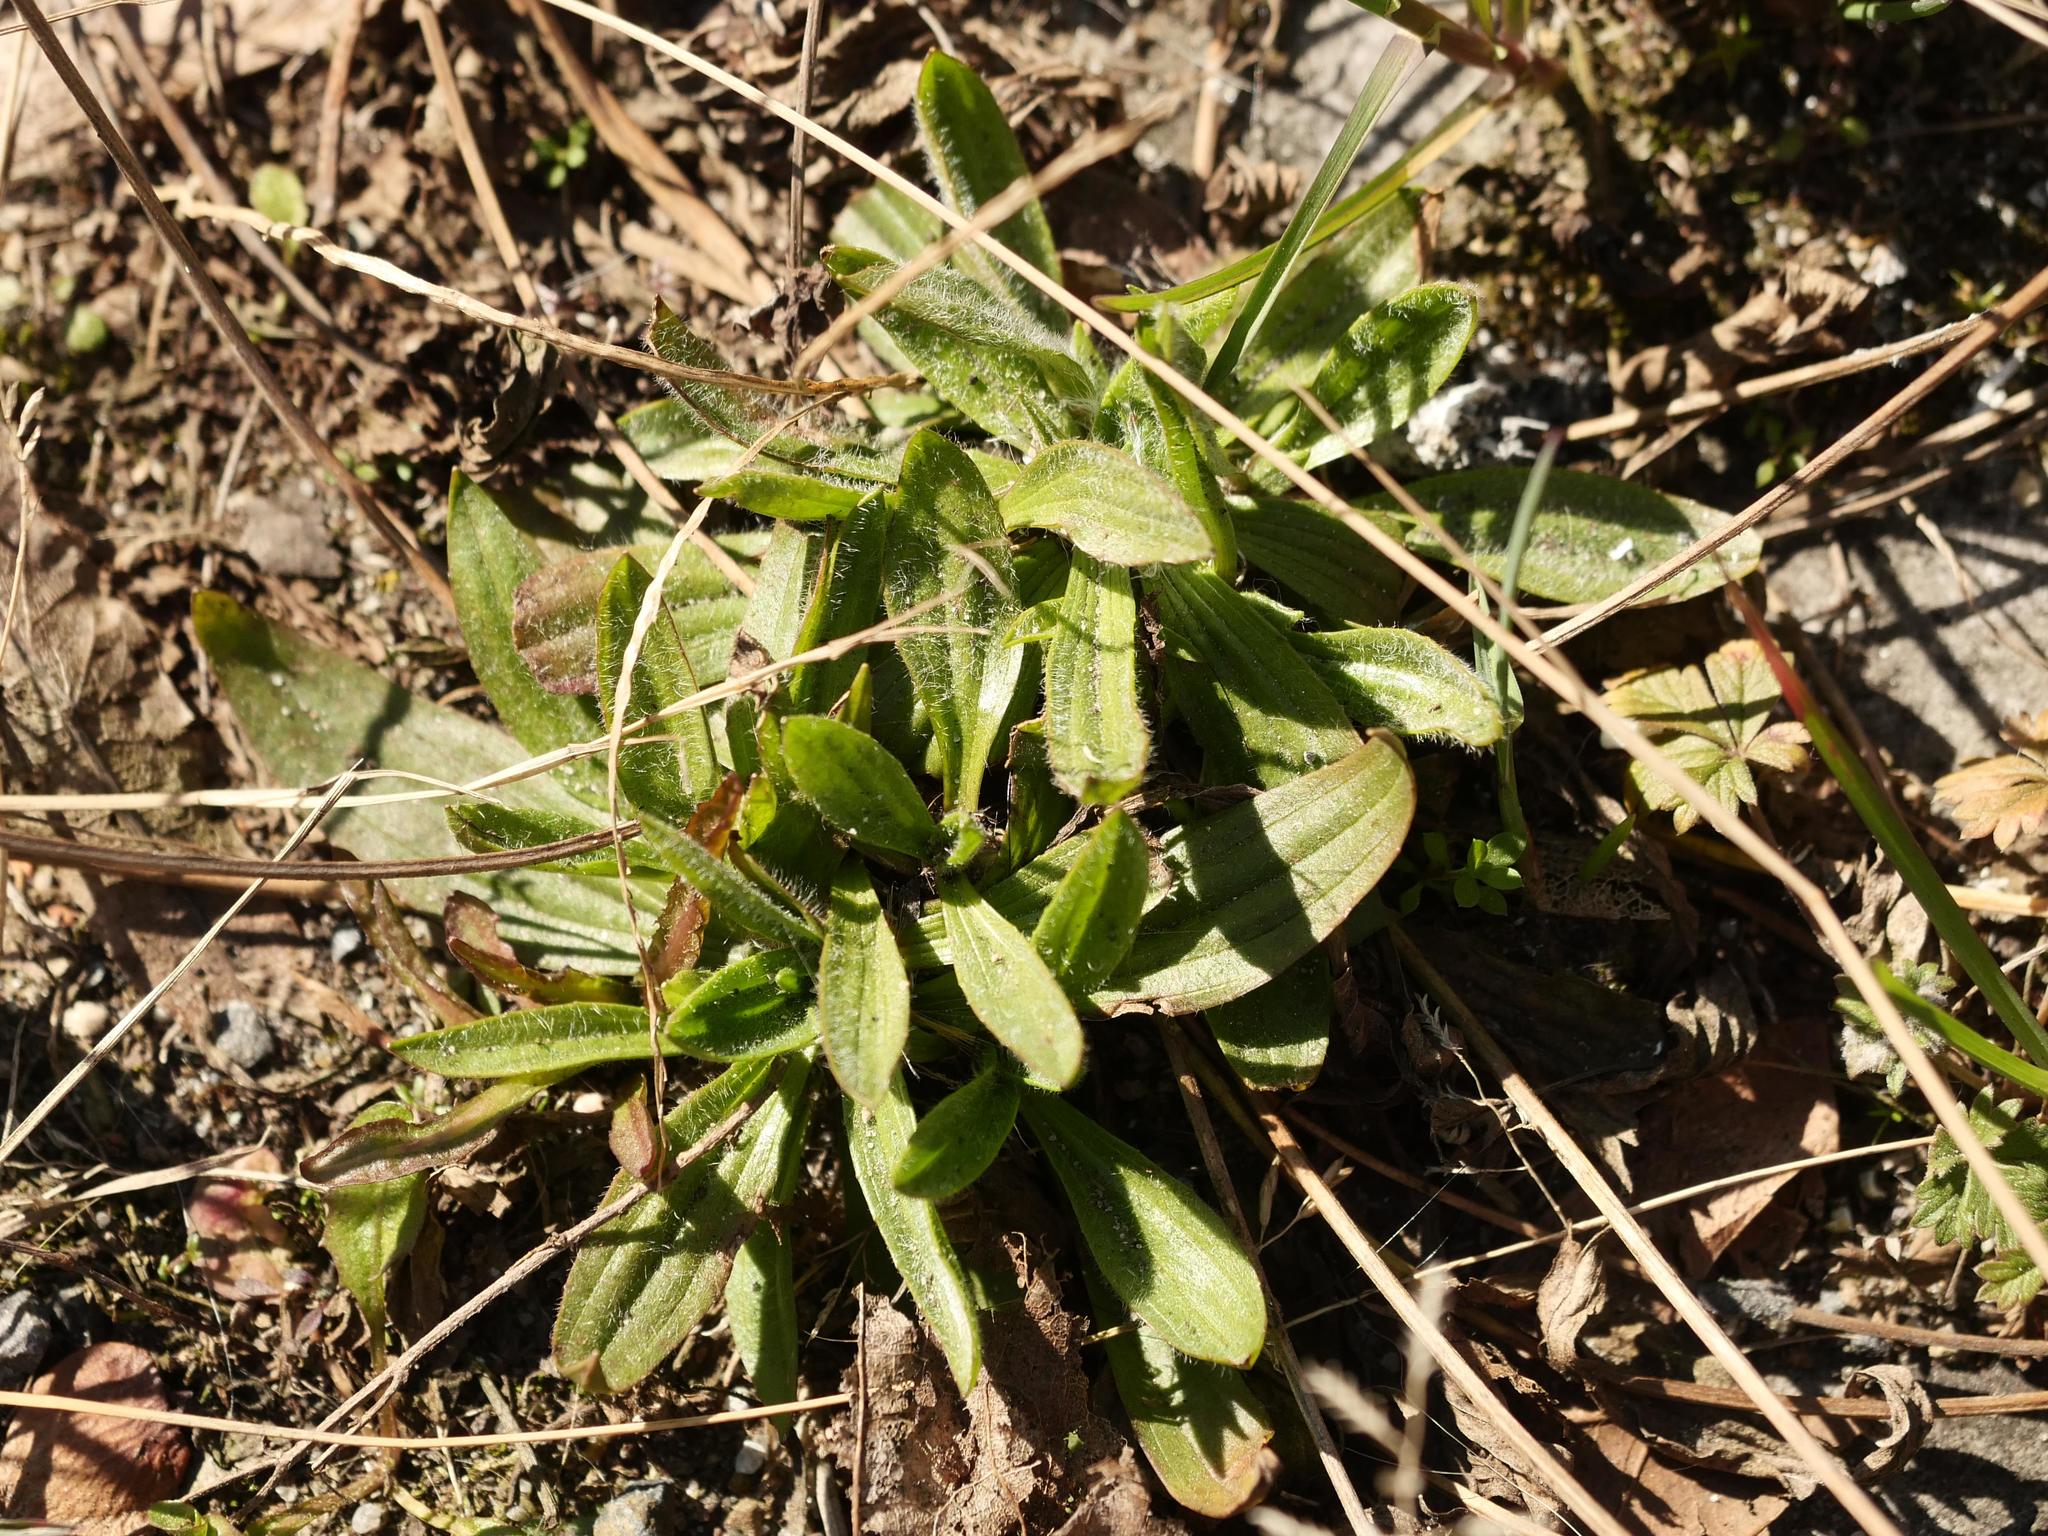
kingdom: Plantae
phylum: Tracheophyta
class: Magnoliopsida
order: Lamiales
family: Plantaginaceae
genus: Plantago
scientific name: Plantago lanceolata
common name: Ribwort plantain
